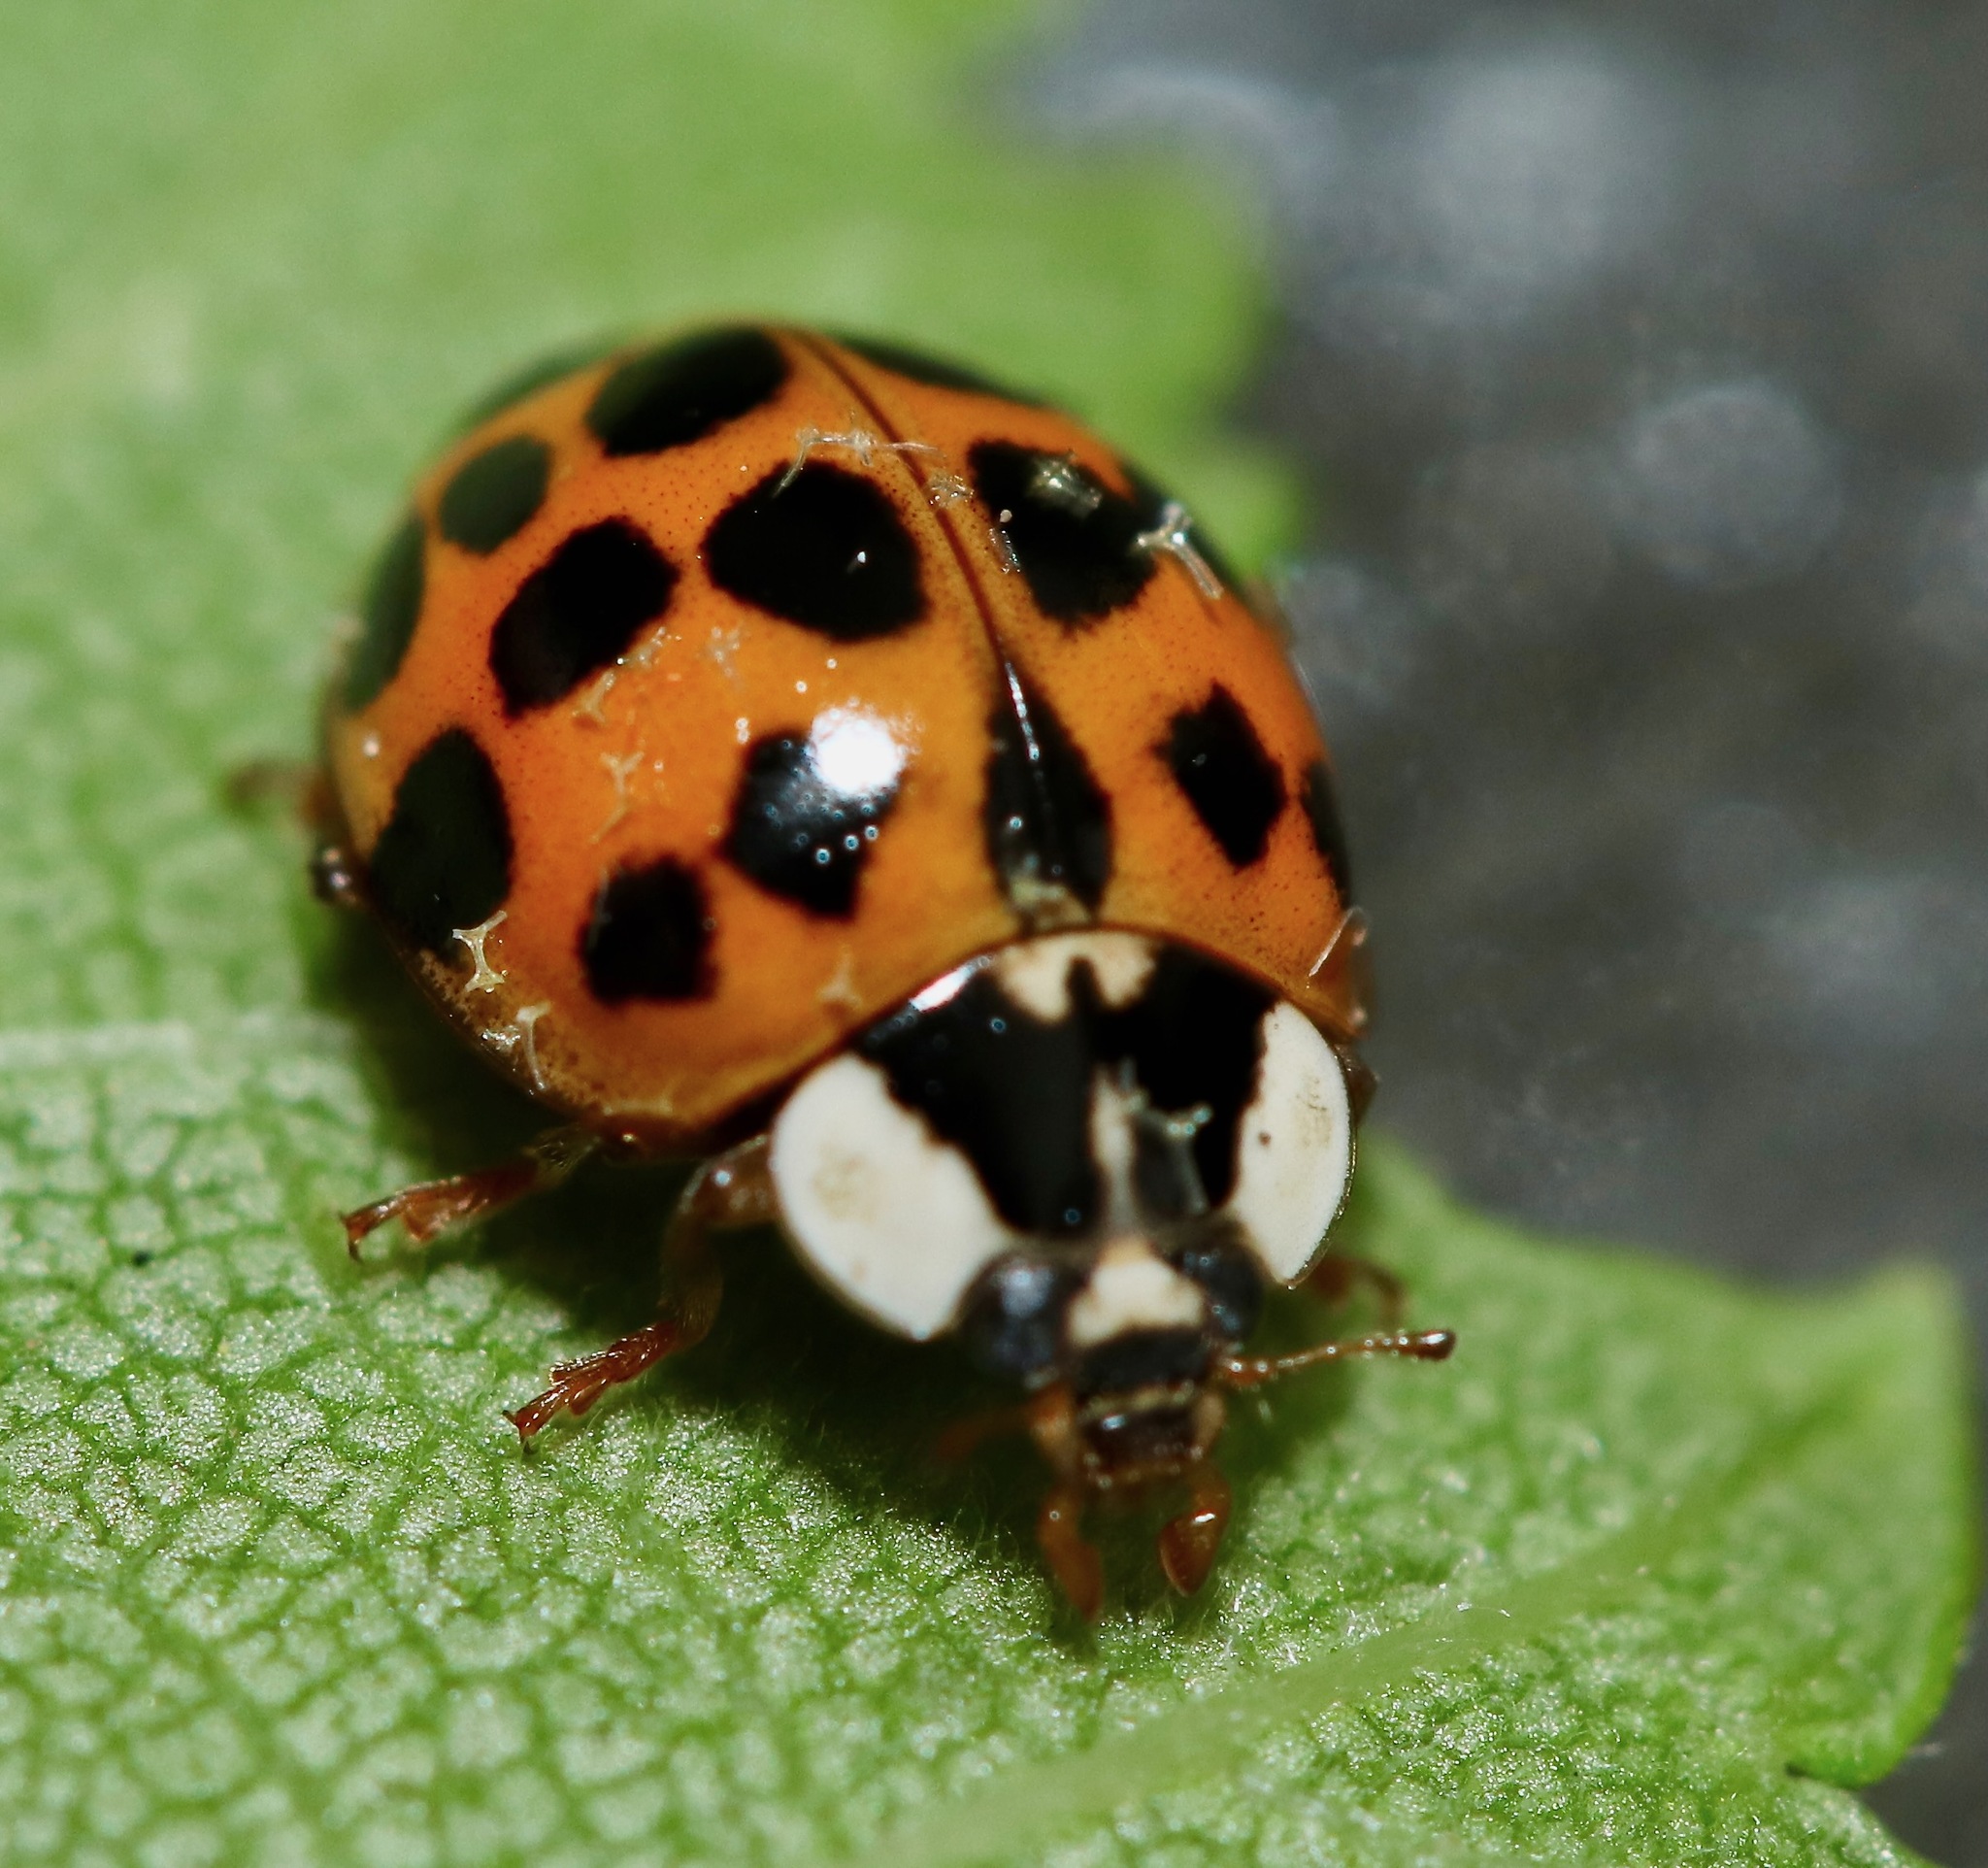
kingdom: Animalia
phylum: Arthropoda
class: Insecta
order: Coleoptera
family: Coccinellidae
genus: Harmonia
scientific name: Harmonia axyridis
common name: Harlequin ladybird
